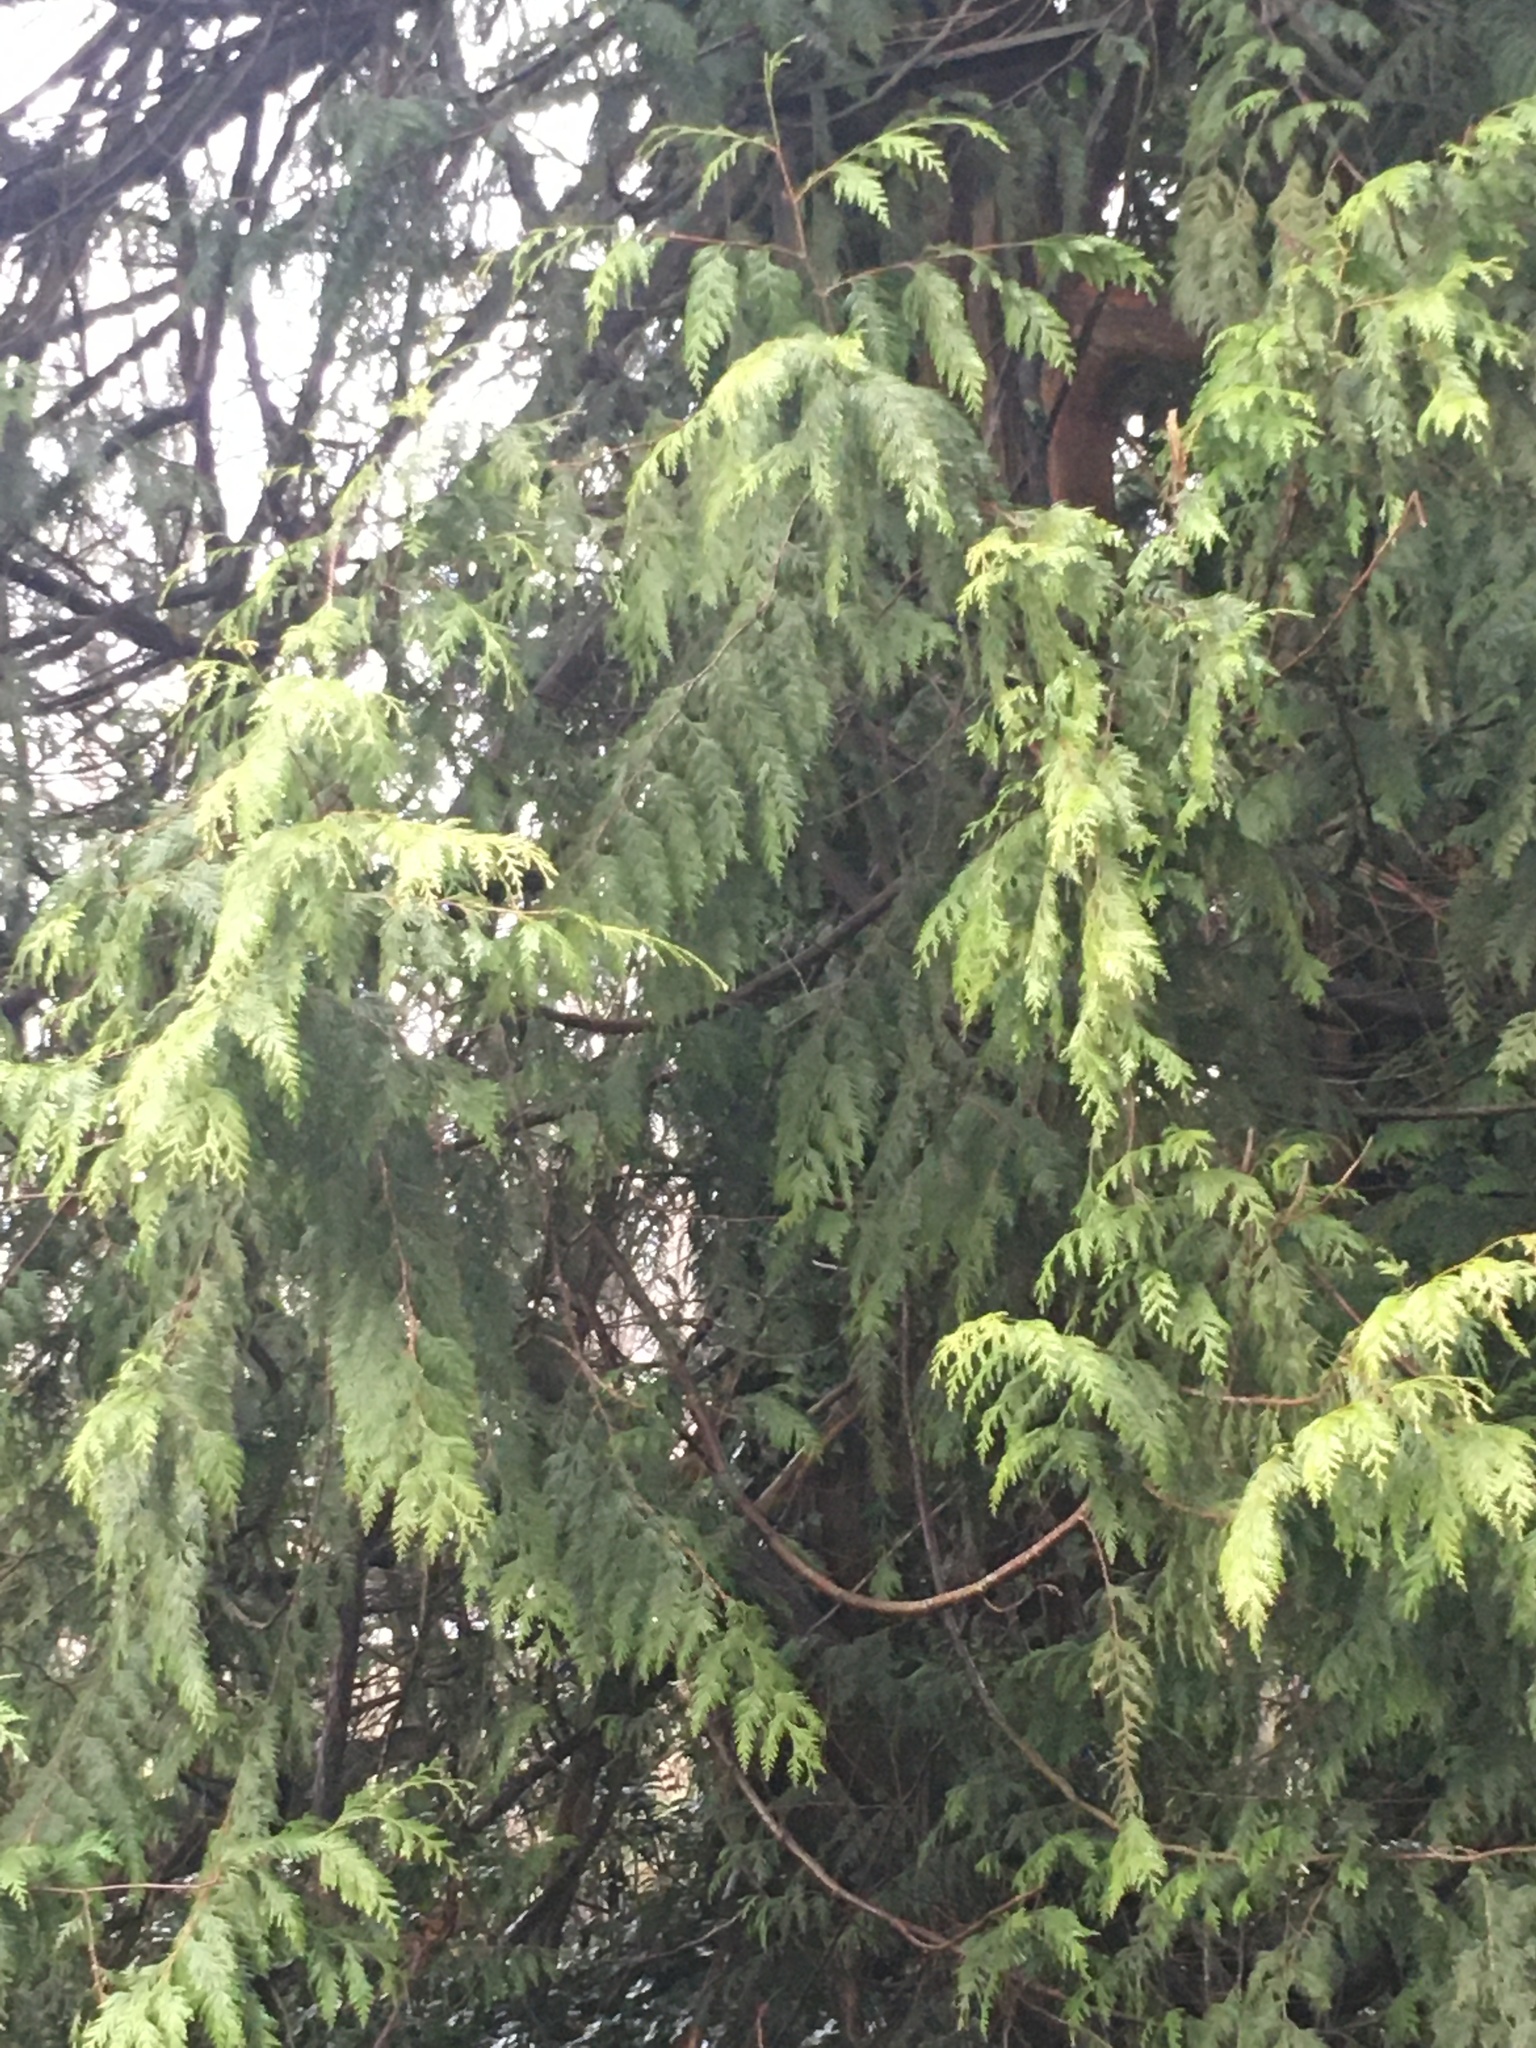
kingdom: Plantae
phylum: Tracheophyta
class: Pinopsida
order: Pinales
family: Cupressaceae
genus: Thuja
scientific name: Thuja plicata
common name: Western red-cedar
